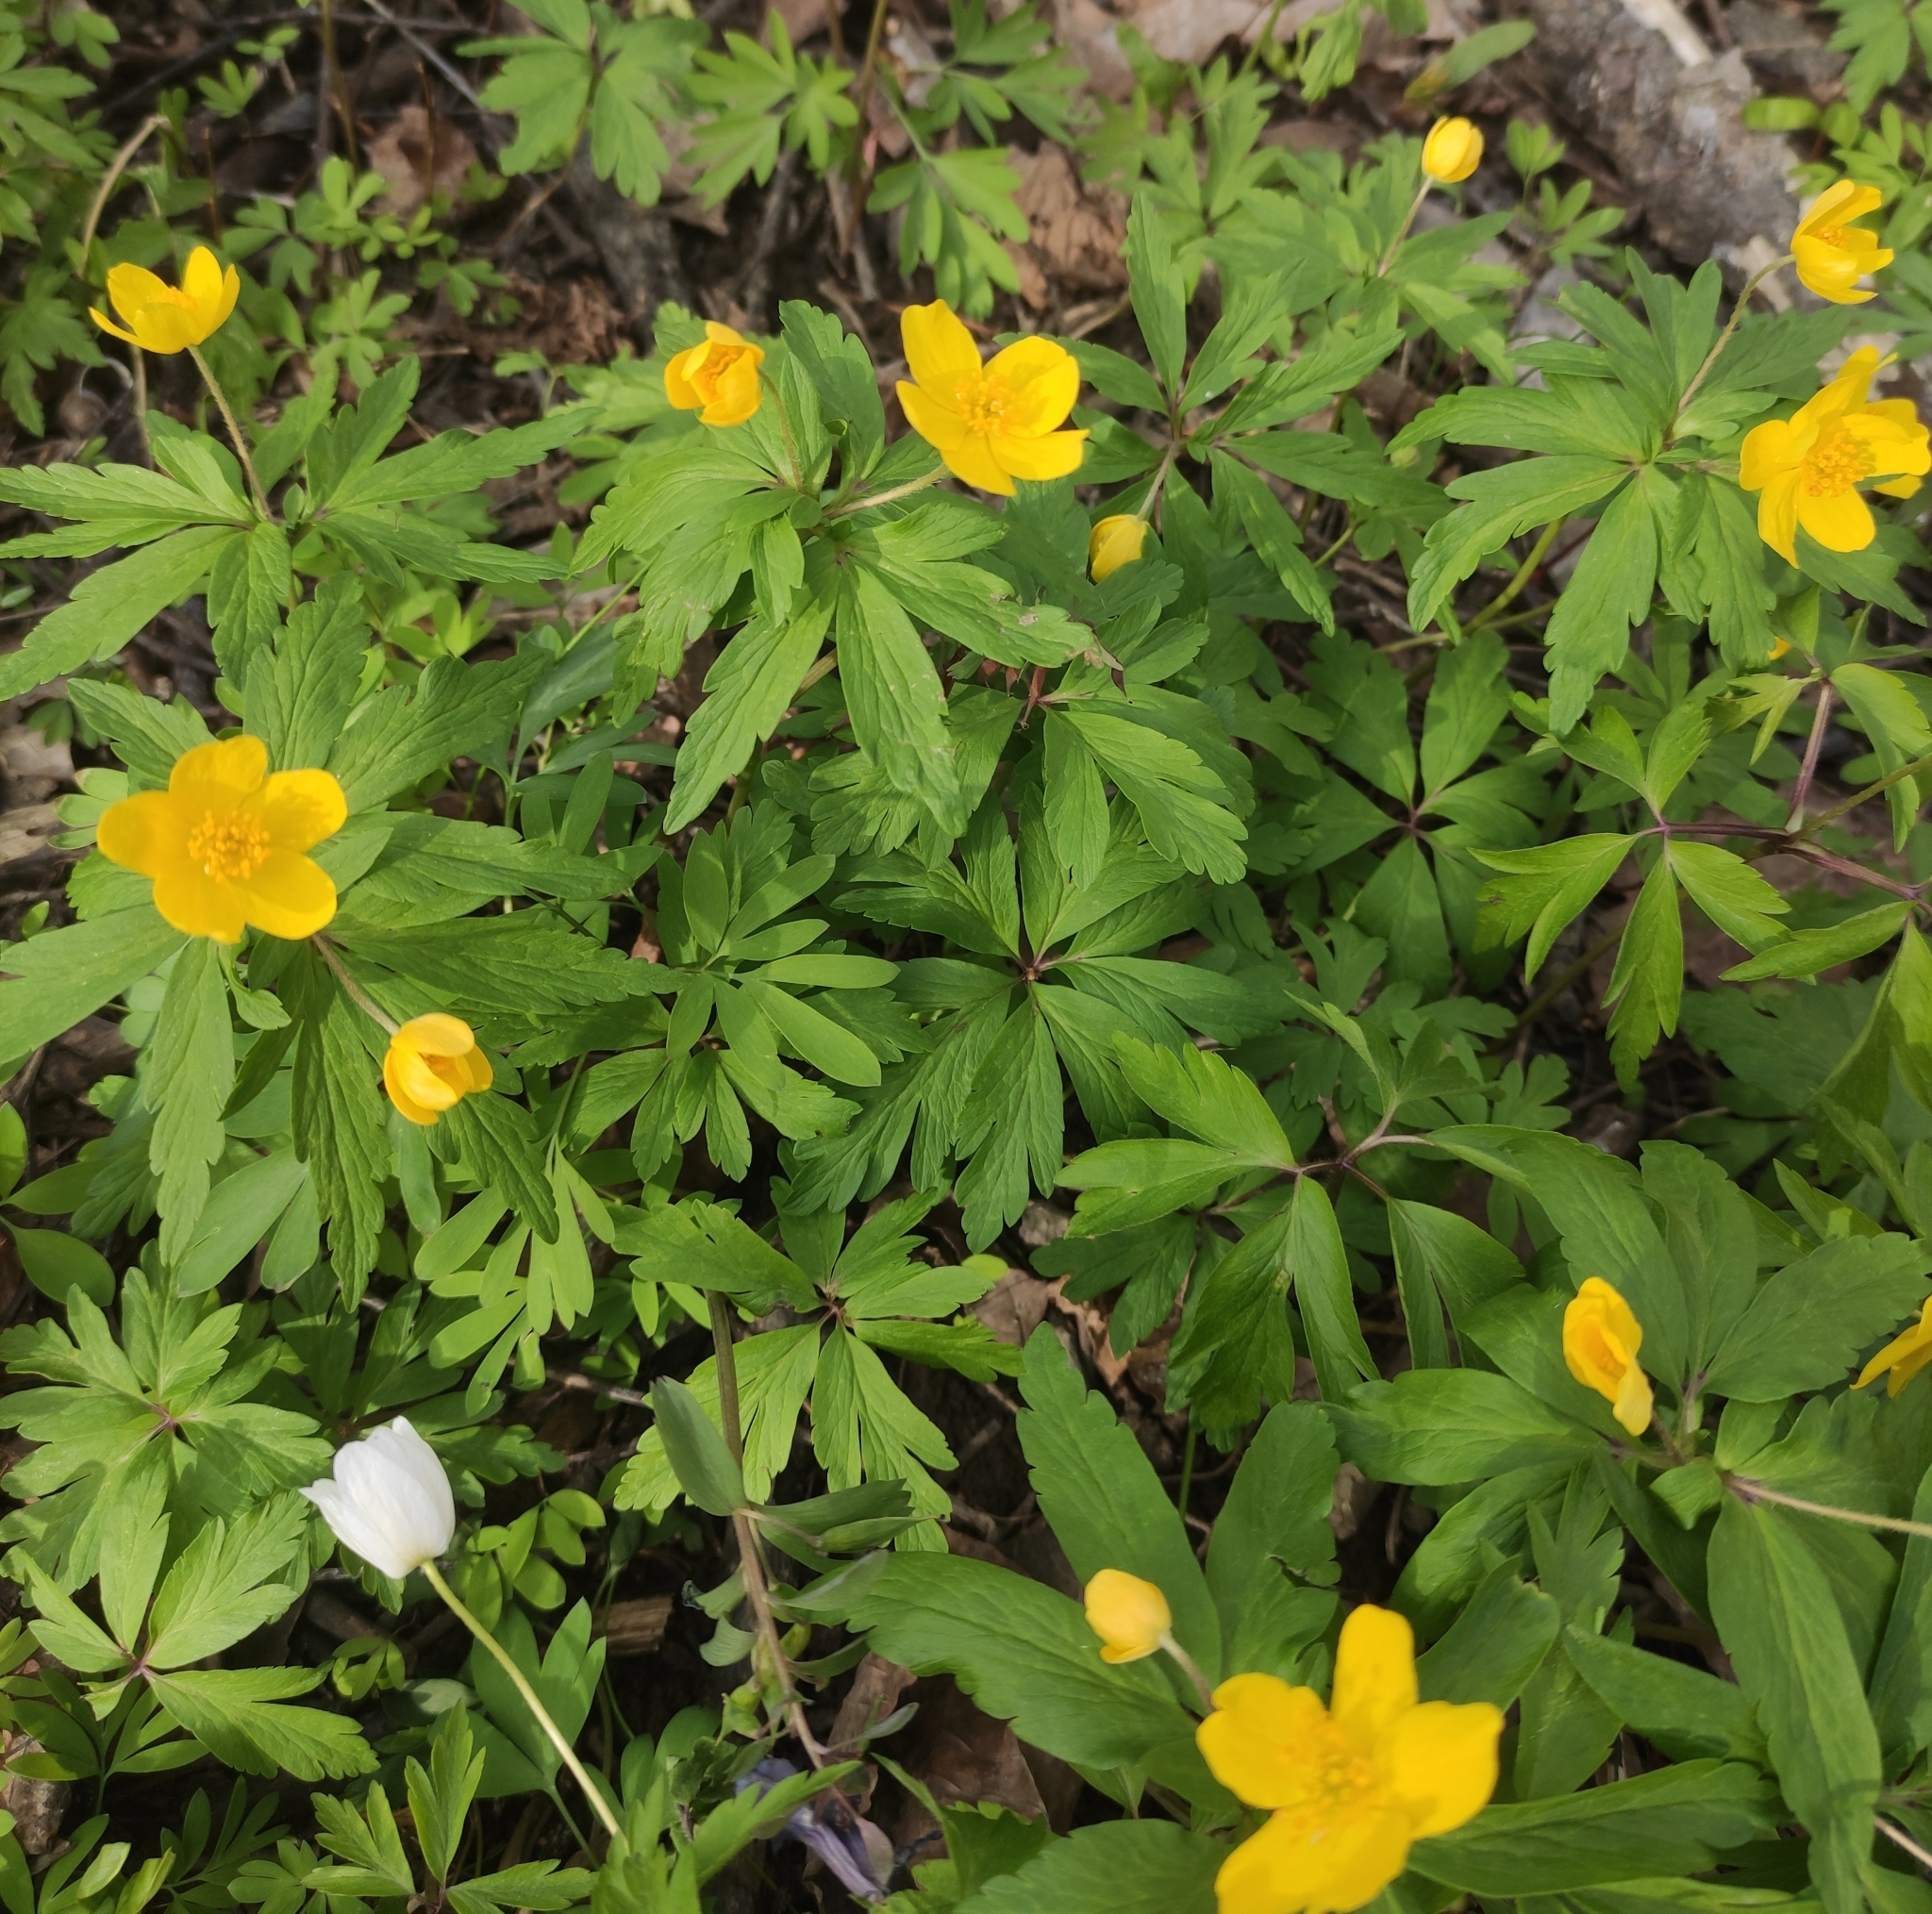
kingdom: Plantae
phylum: Tracheophyta
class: Magnoliopsida
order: Ranunculales
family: Ranunculaceae
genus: Anemone
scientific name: Anemone ranunculoides
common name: Yellow anemone
